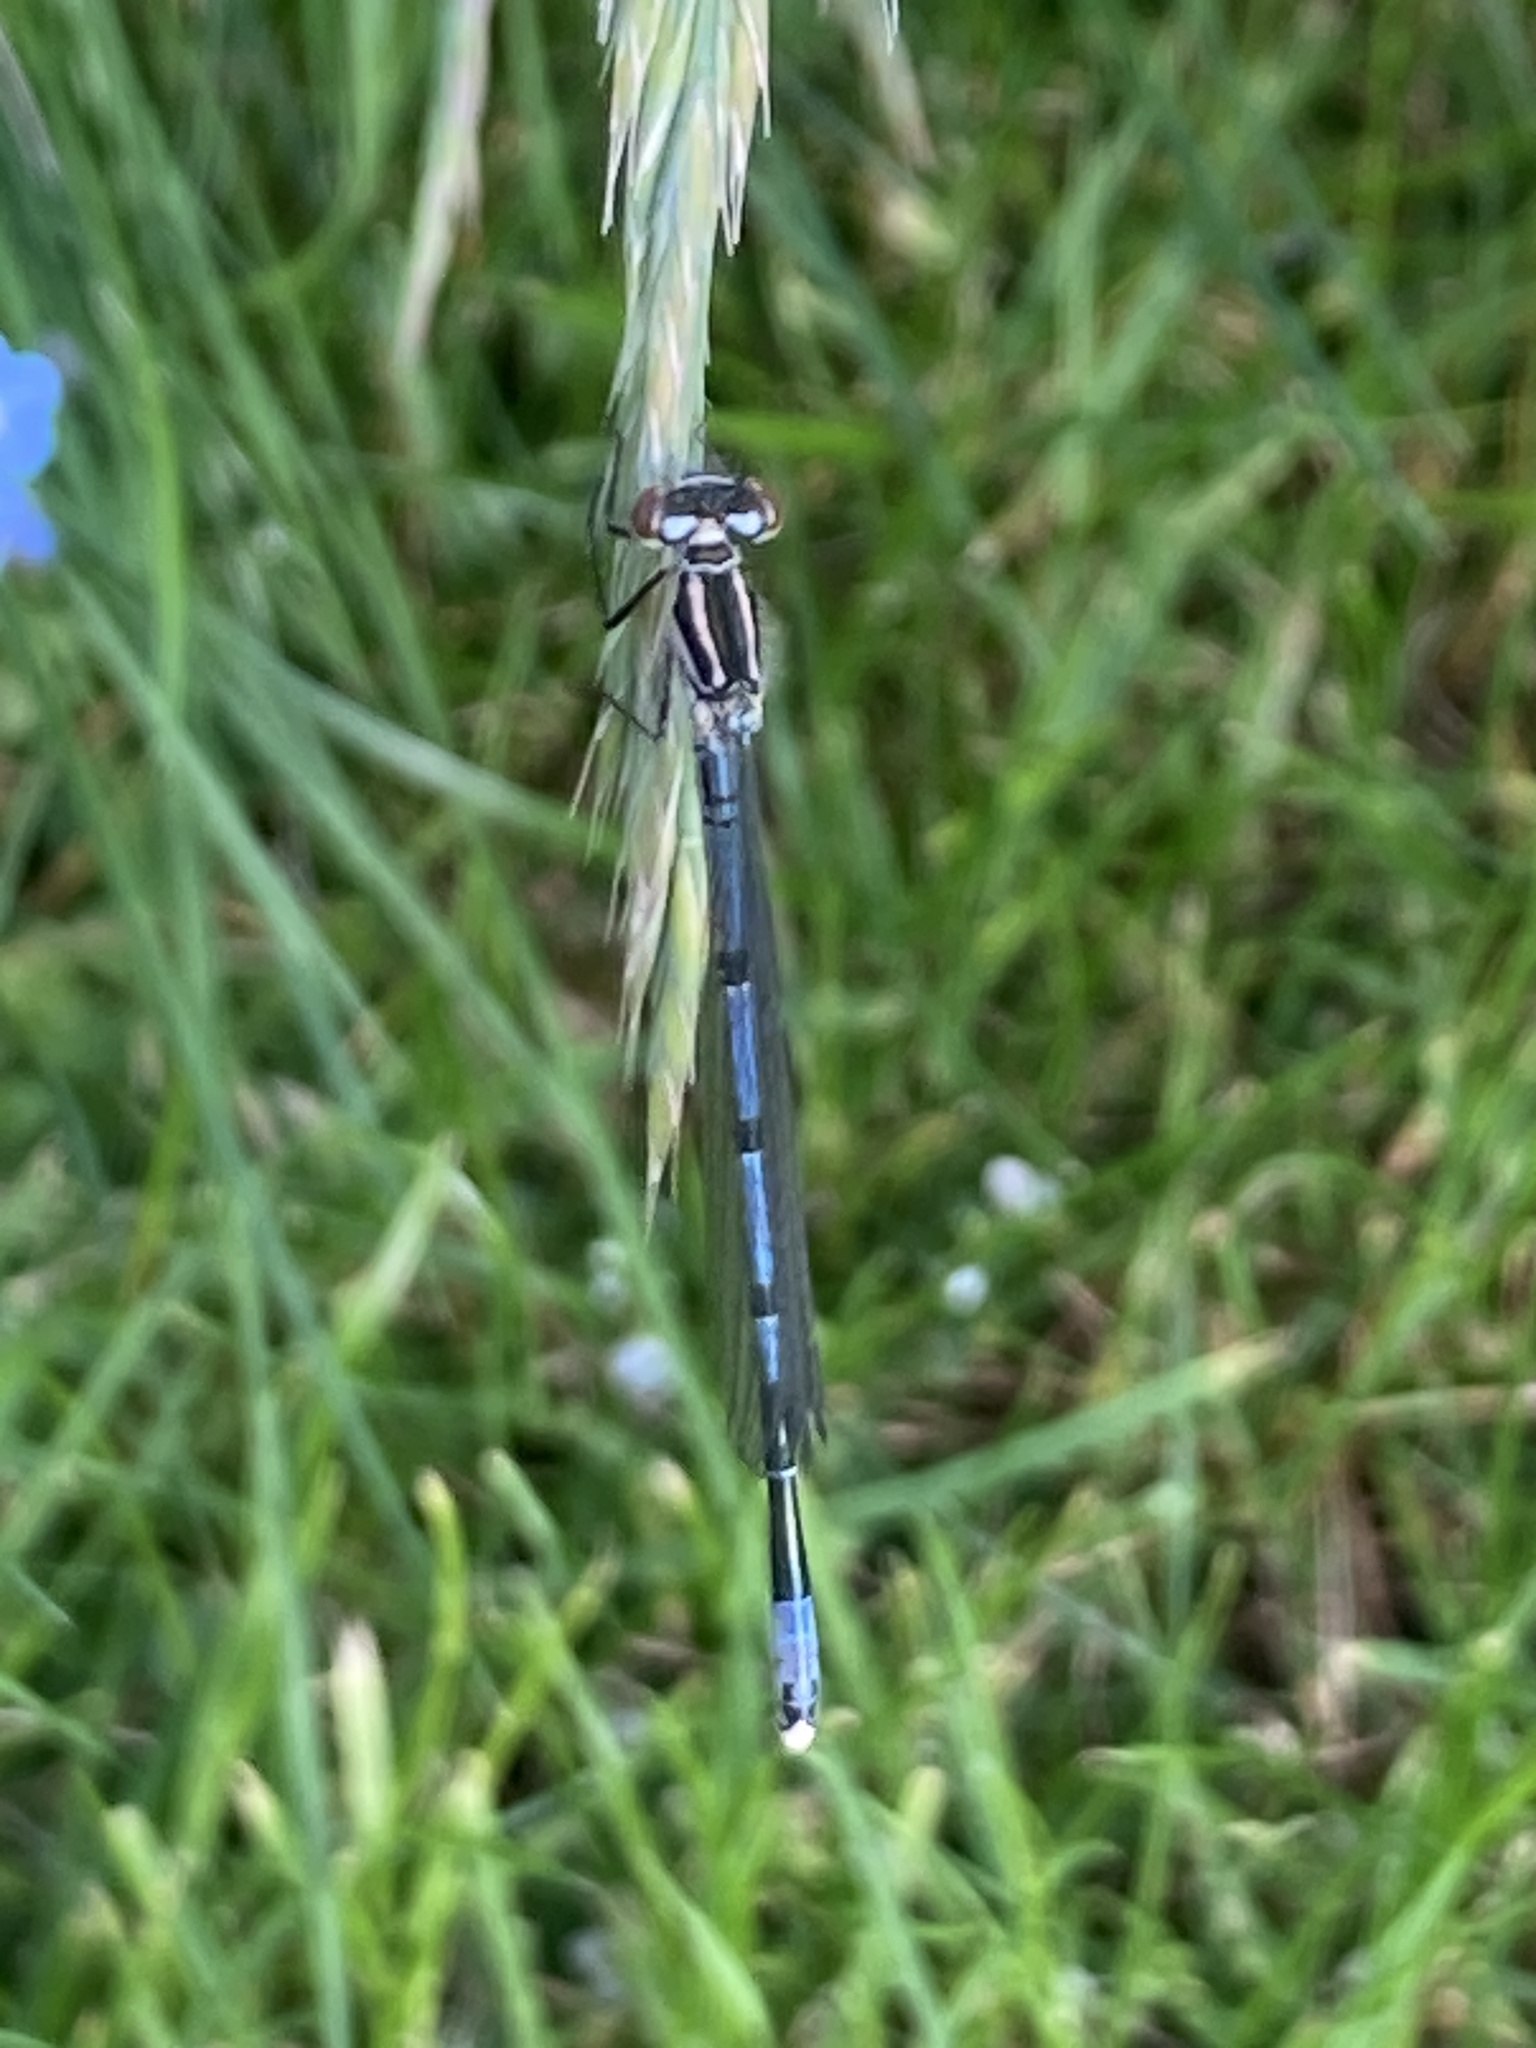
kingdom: Animalia
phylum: Arthropoda
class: Insecta
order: Odonata
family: Coenagrionidae
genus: Coenagrion
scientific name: Coenagrion puella
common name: Azure damselfly
